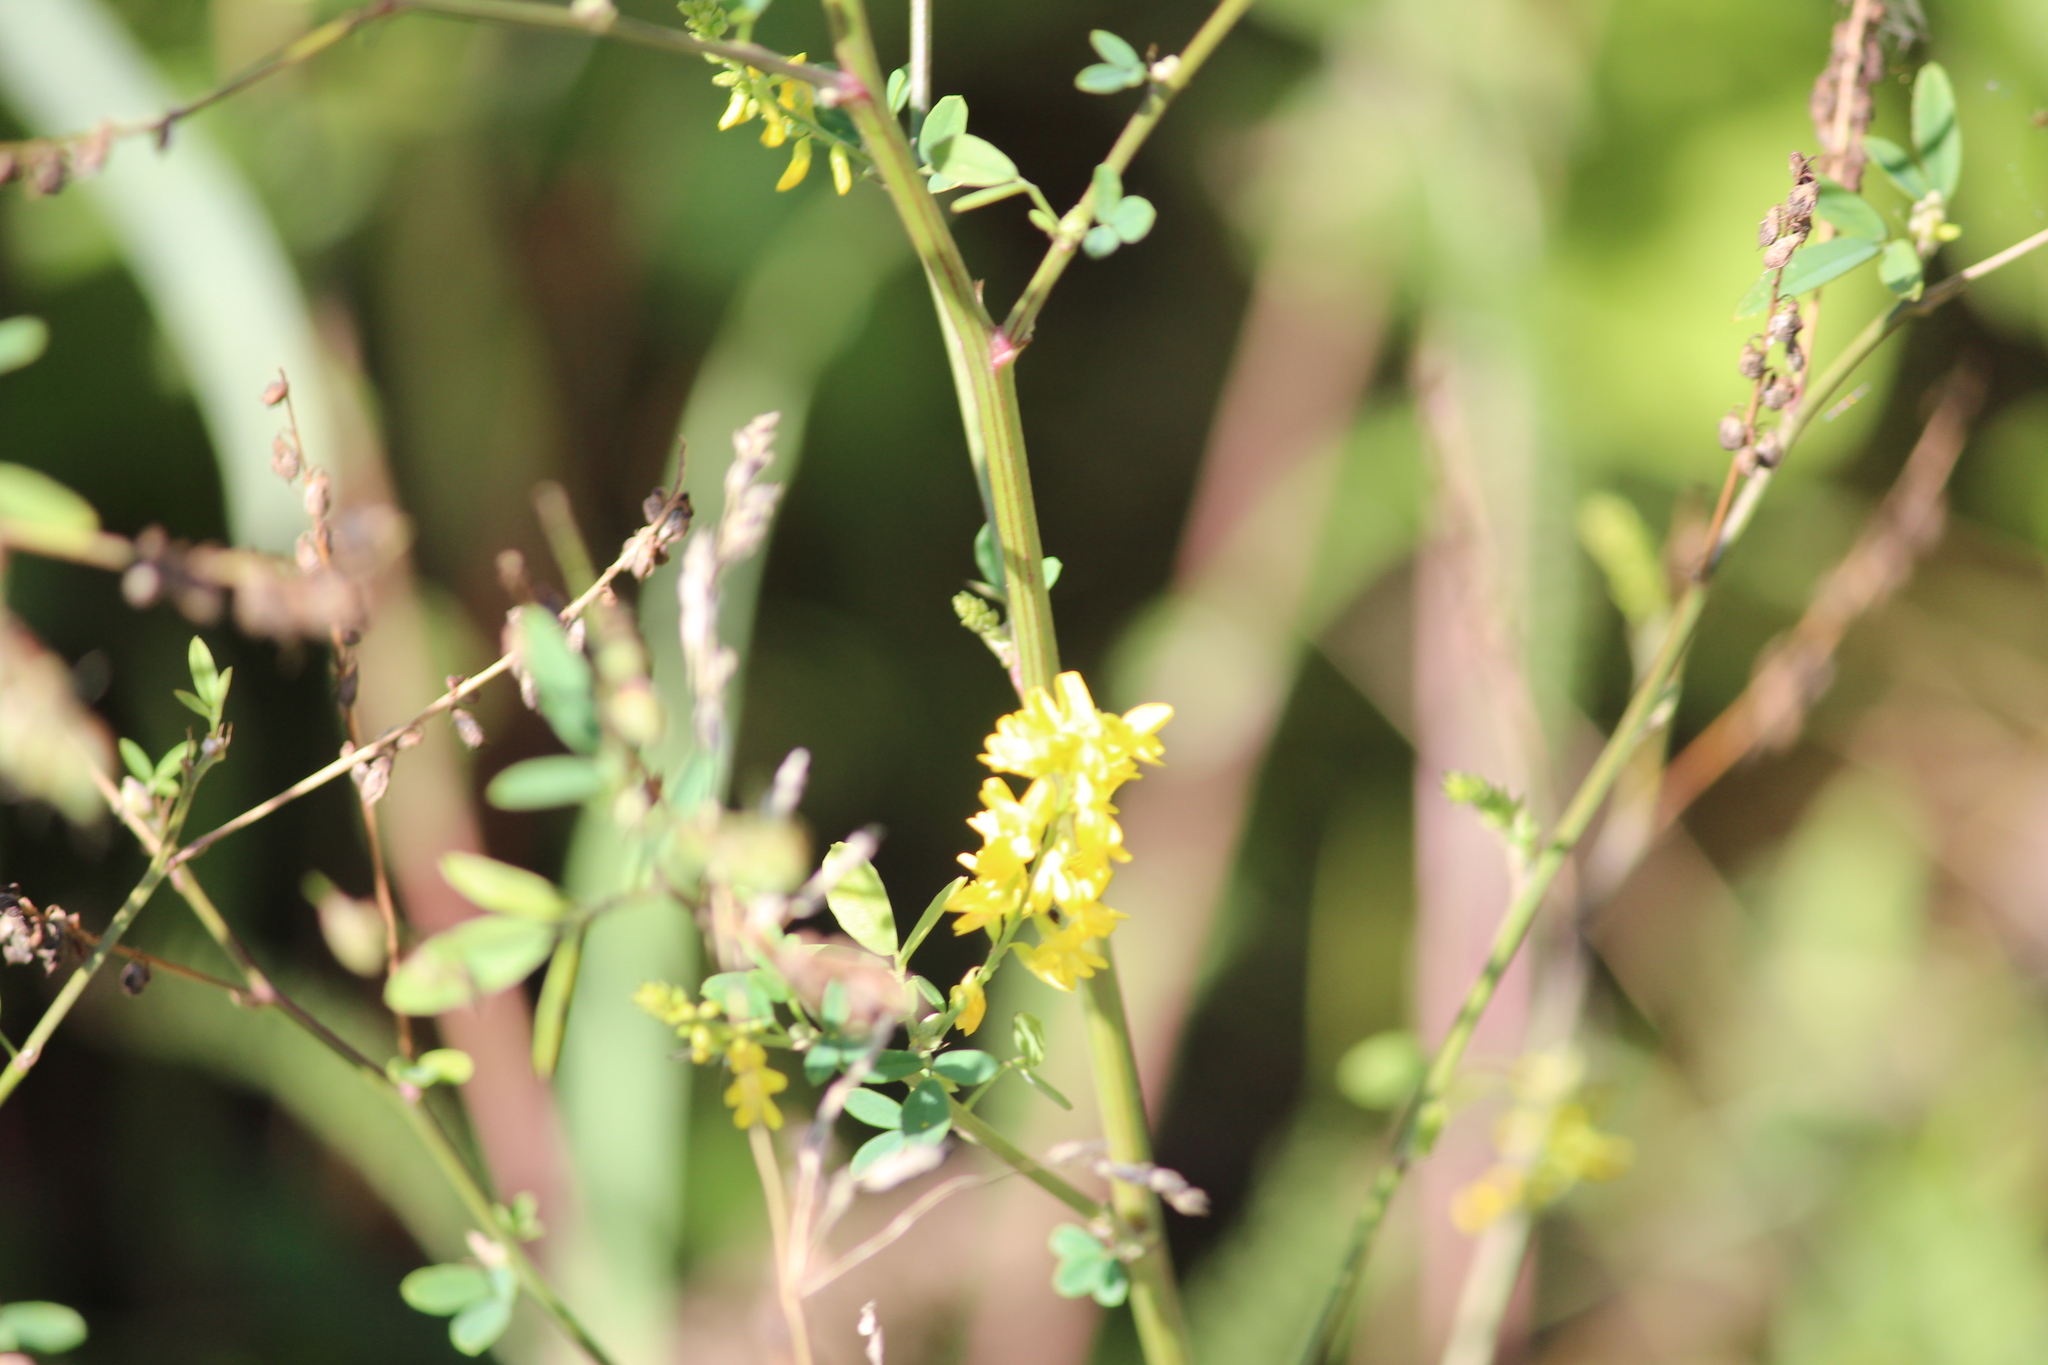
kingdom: Plantae
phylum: Tracheophyta
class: Magnoliopsida
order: Fabales
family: Fabaceae
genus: Melilotus
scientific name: Melilotus officinalis
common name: Sweetclover
